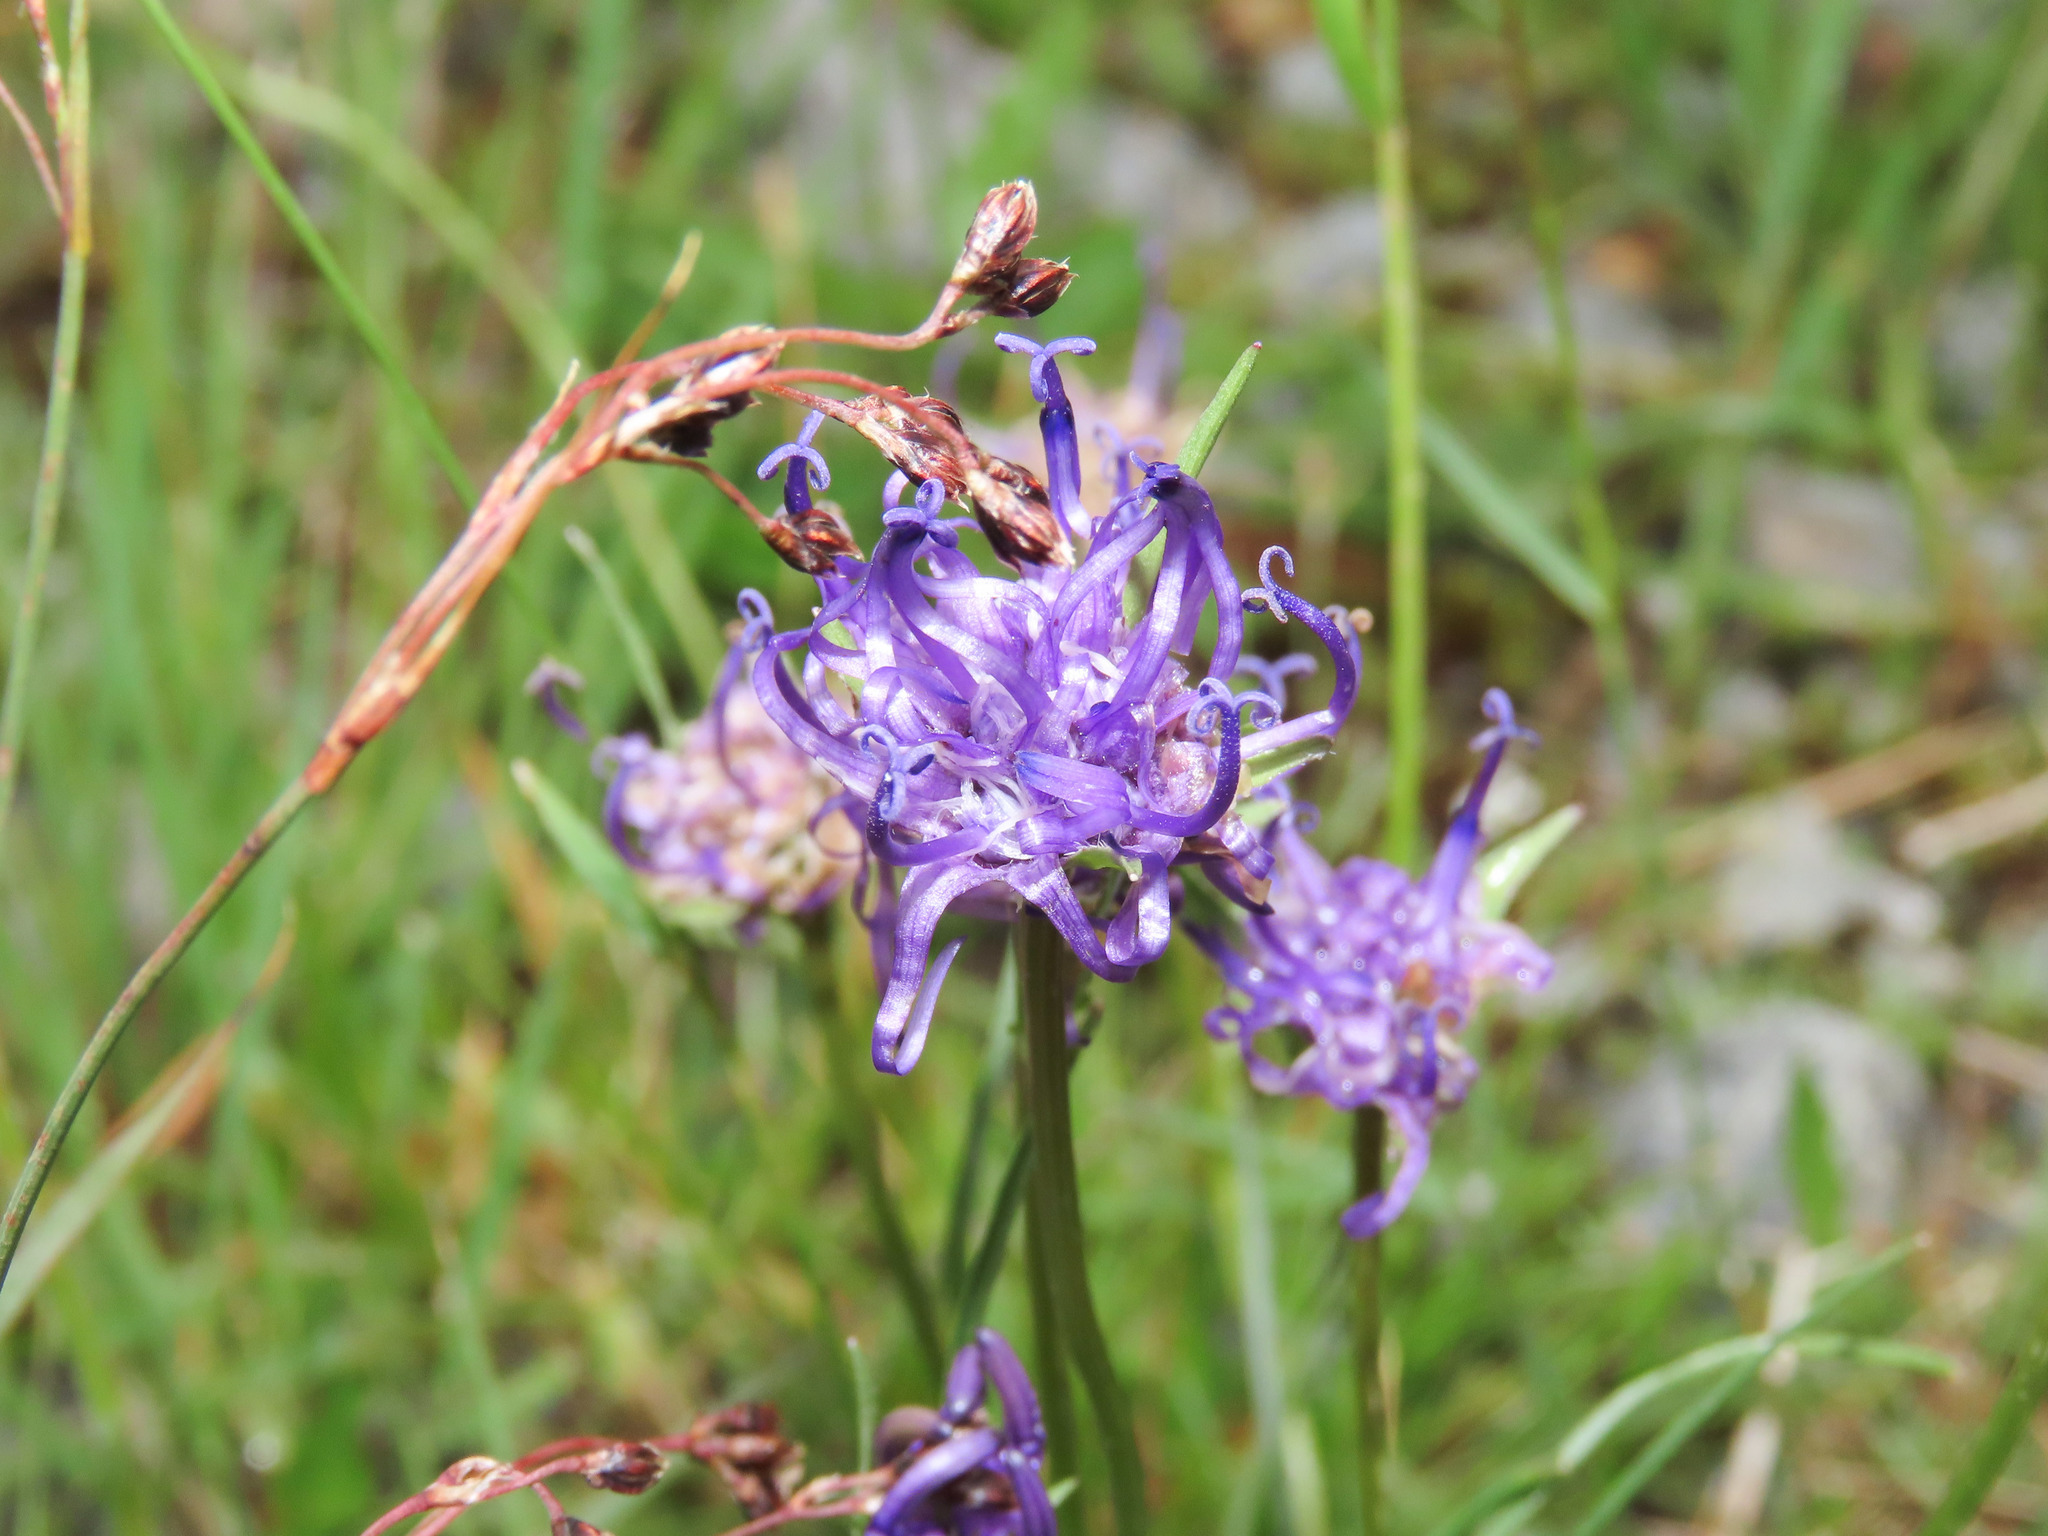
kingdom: Plantae
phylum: Tracheophyta
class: Magnoliopsida
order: Asterales
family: Campanulaceae
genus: Phyteuma
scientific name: Phyteuma hemisphaericum
